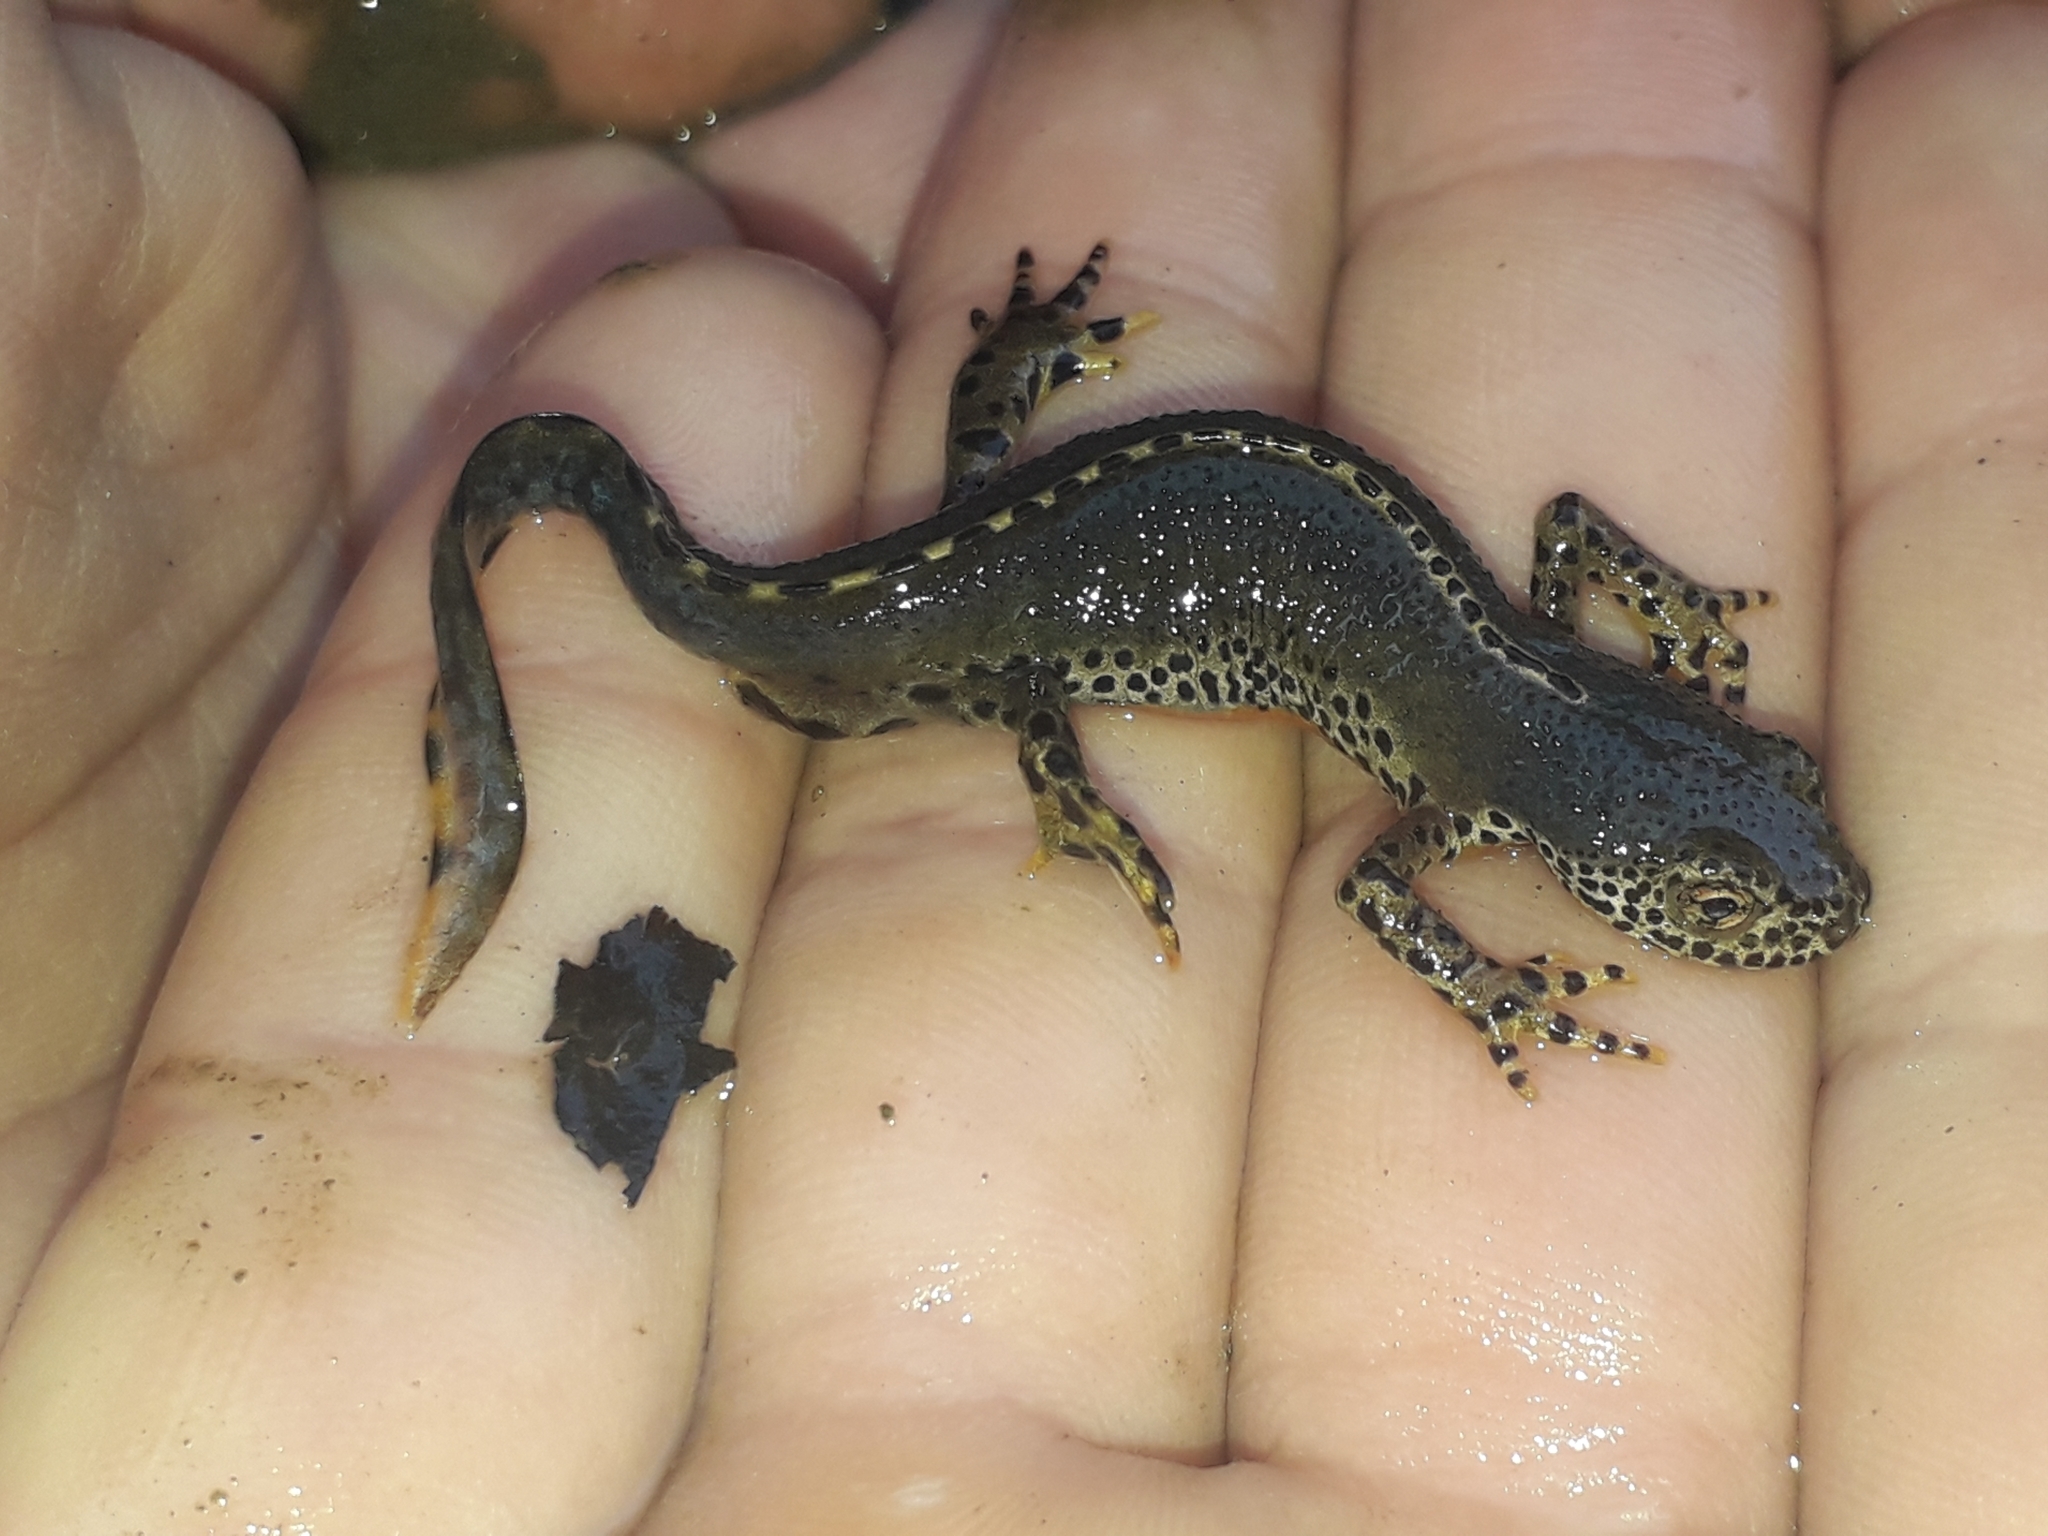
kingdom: Animalia
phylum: Chordata
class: Amphibia
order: Caudata
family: Salamandridae
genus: Ichthyosaura
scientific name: Ichthyosaura alpestris
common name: Alpine newt
